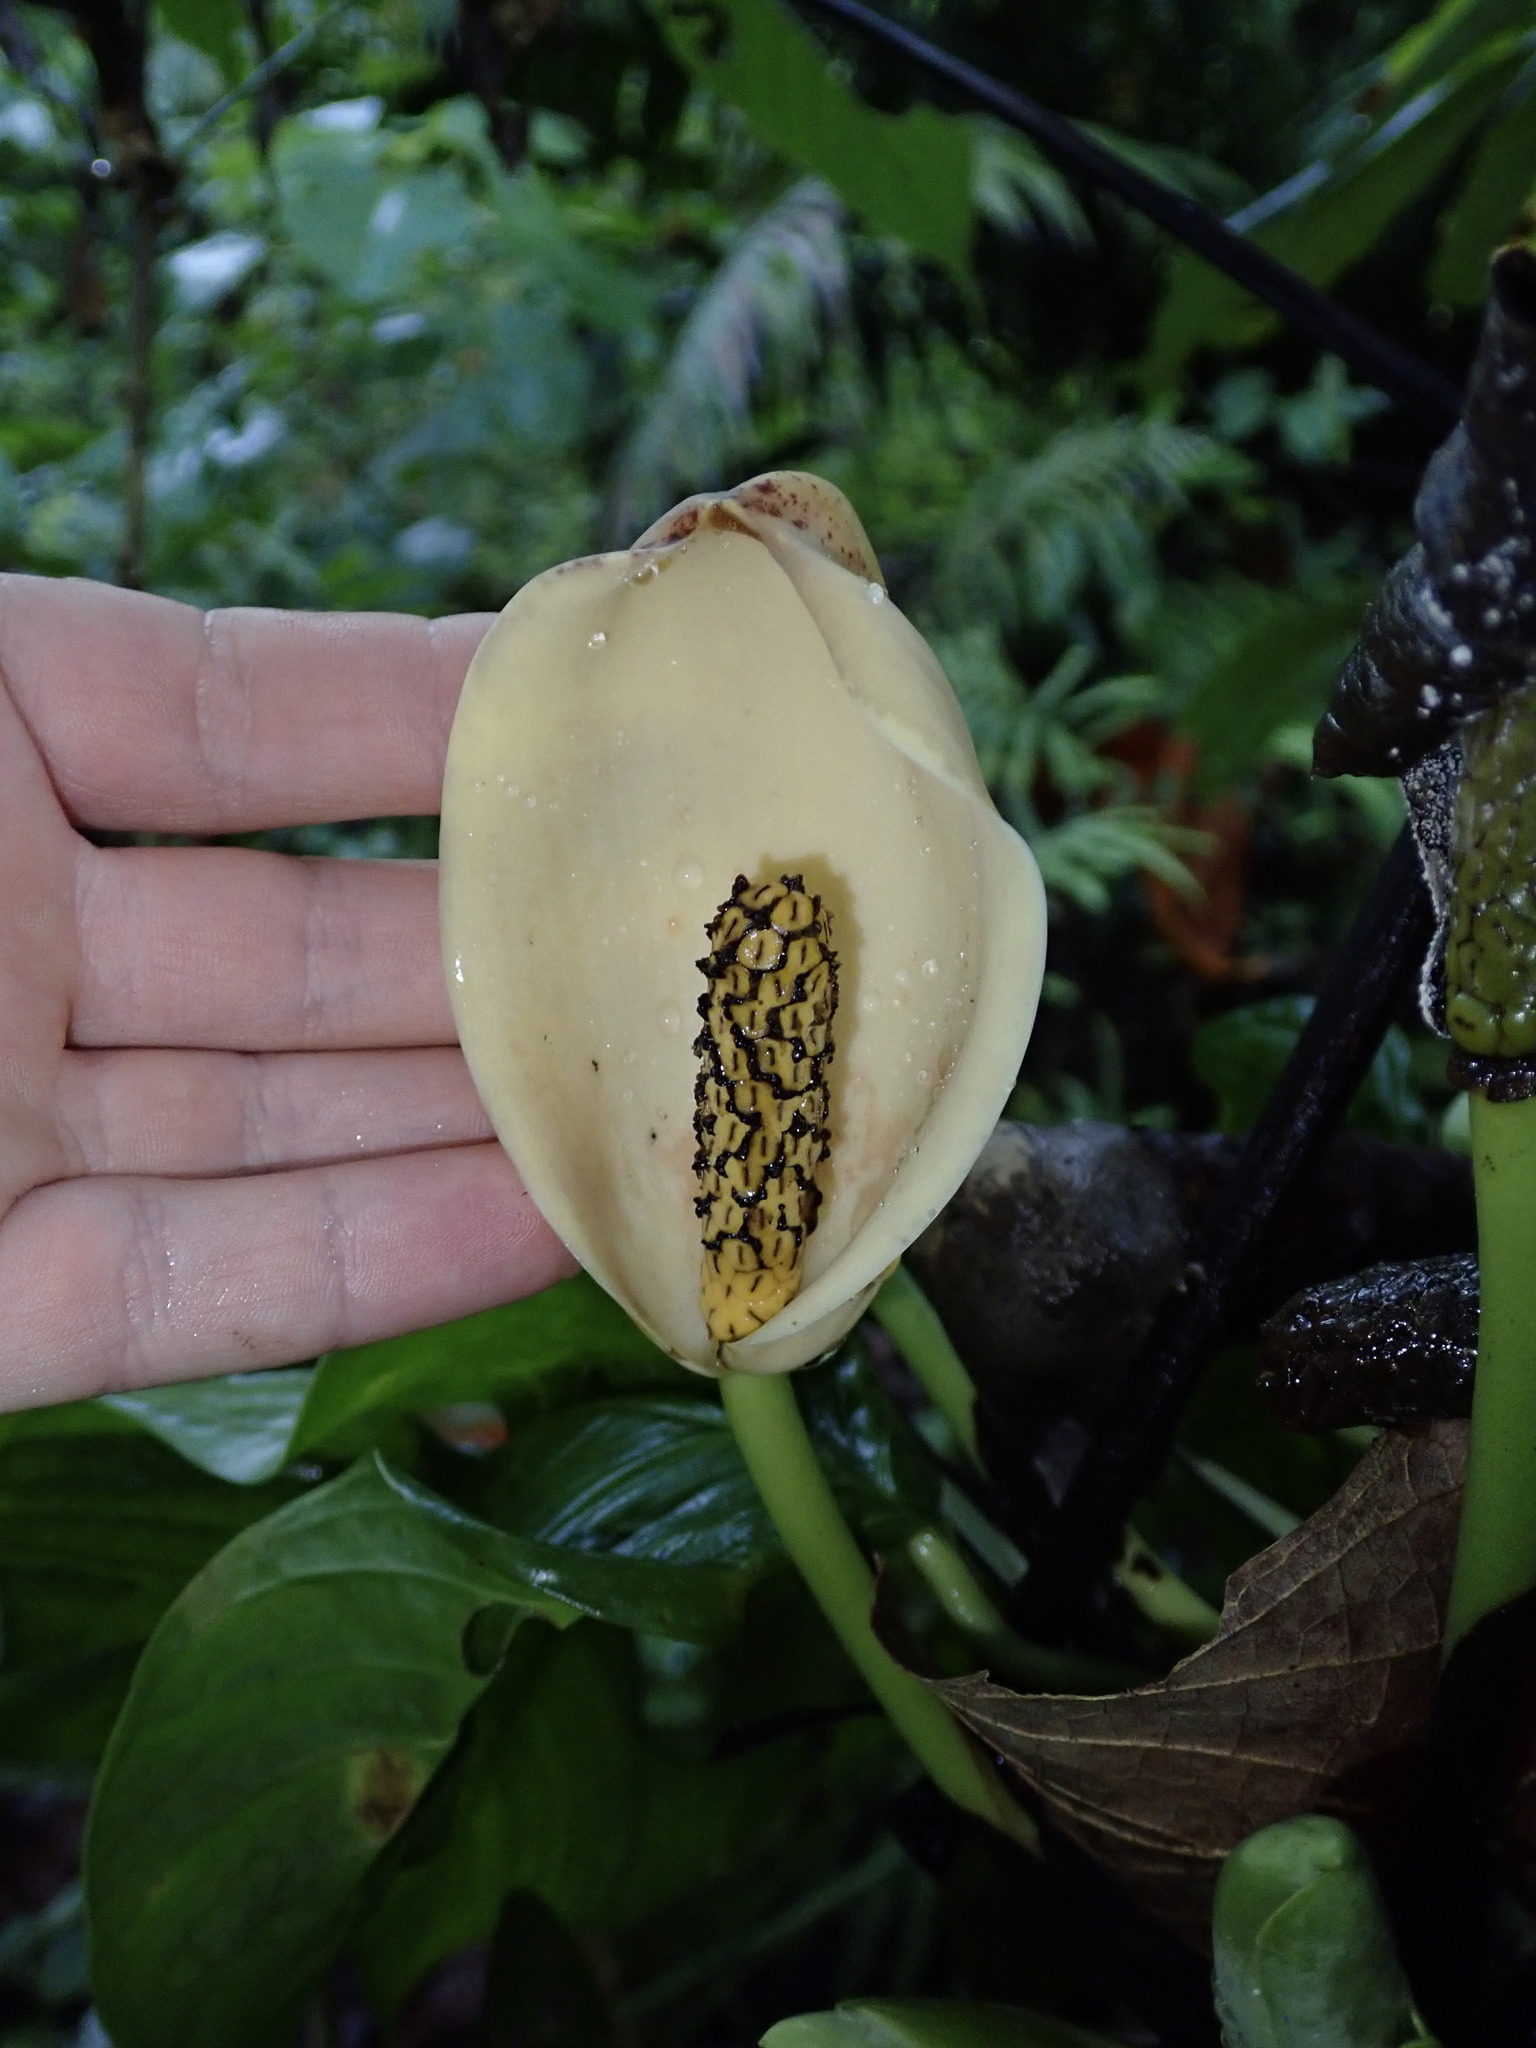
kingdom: Plantae
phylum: Tracheophyta
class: Liliopsida
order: Alismatales
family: Araceae
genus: Monstera
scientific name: Monstera obliqua
